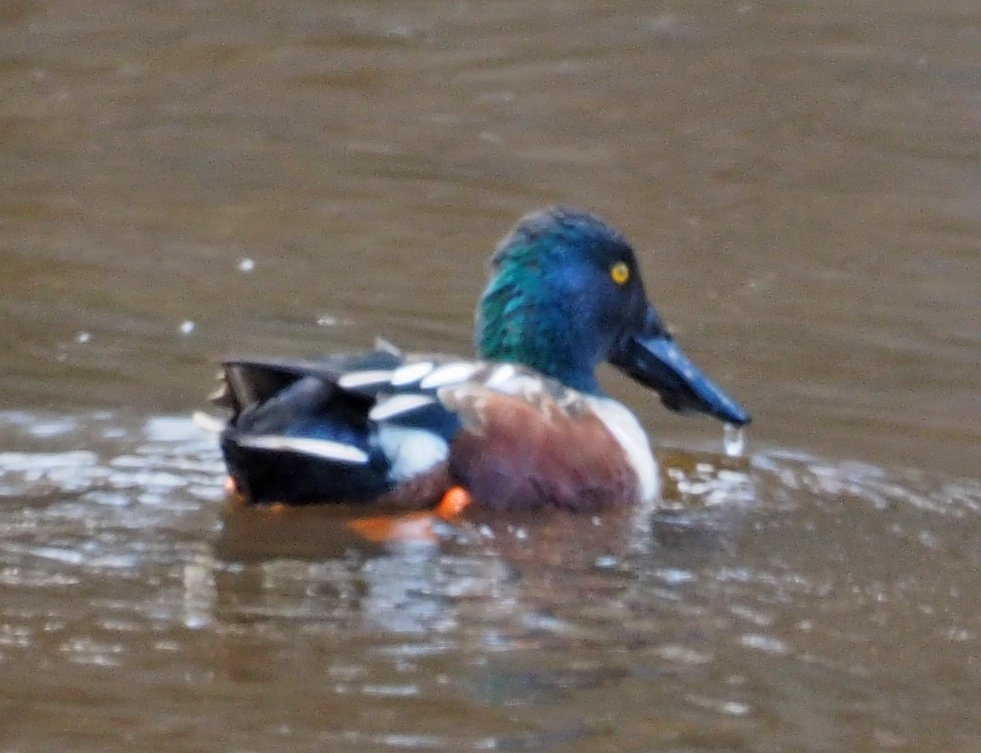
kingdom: Animalia
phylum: Chordata
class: Aves
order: Anseriformes
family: Anatidae
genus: Spatula
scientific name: Spatula clypeata
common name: Northern shoveler
